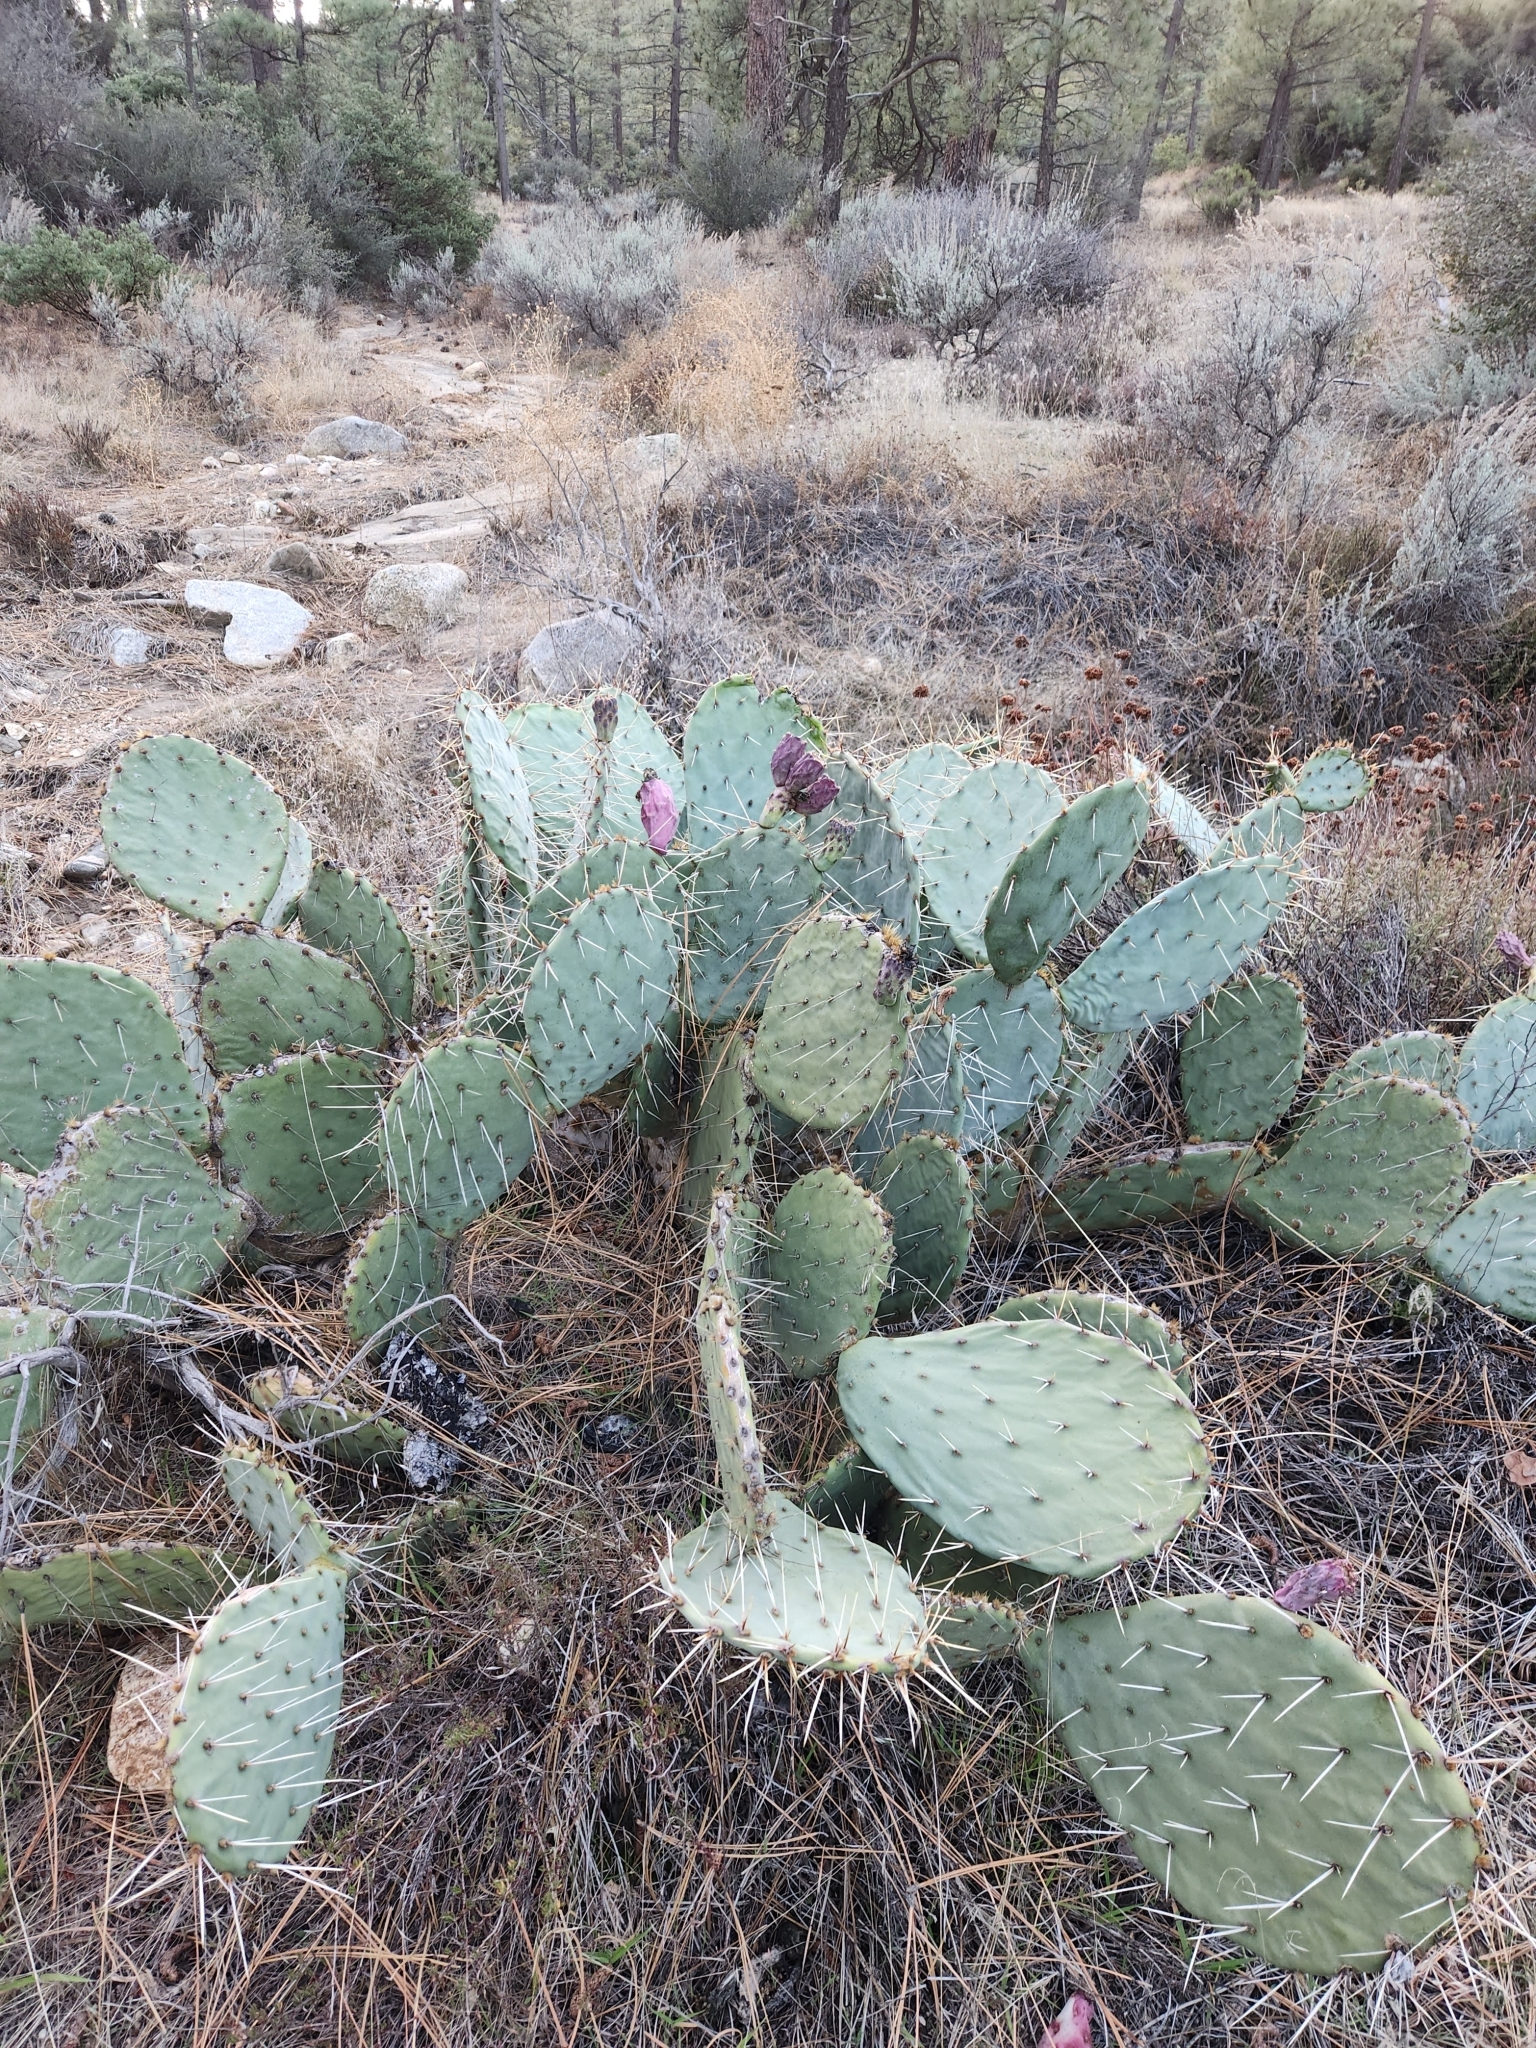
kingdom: Plantae
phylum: Tracheophyta
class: Magnoliopsida
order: Caryophyllales
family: Cactaceae
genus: Opuntia
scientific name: Opuntia phaeacantha
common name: New mexico prickly-pear
